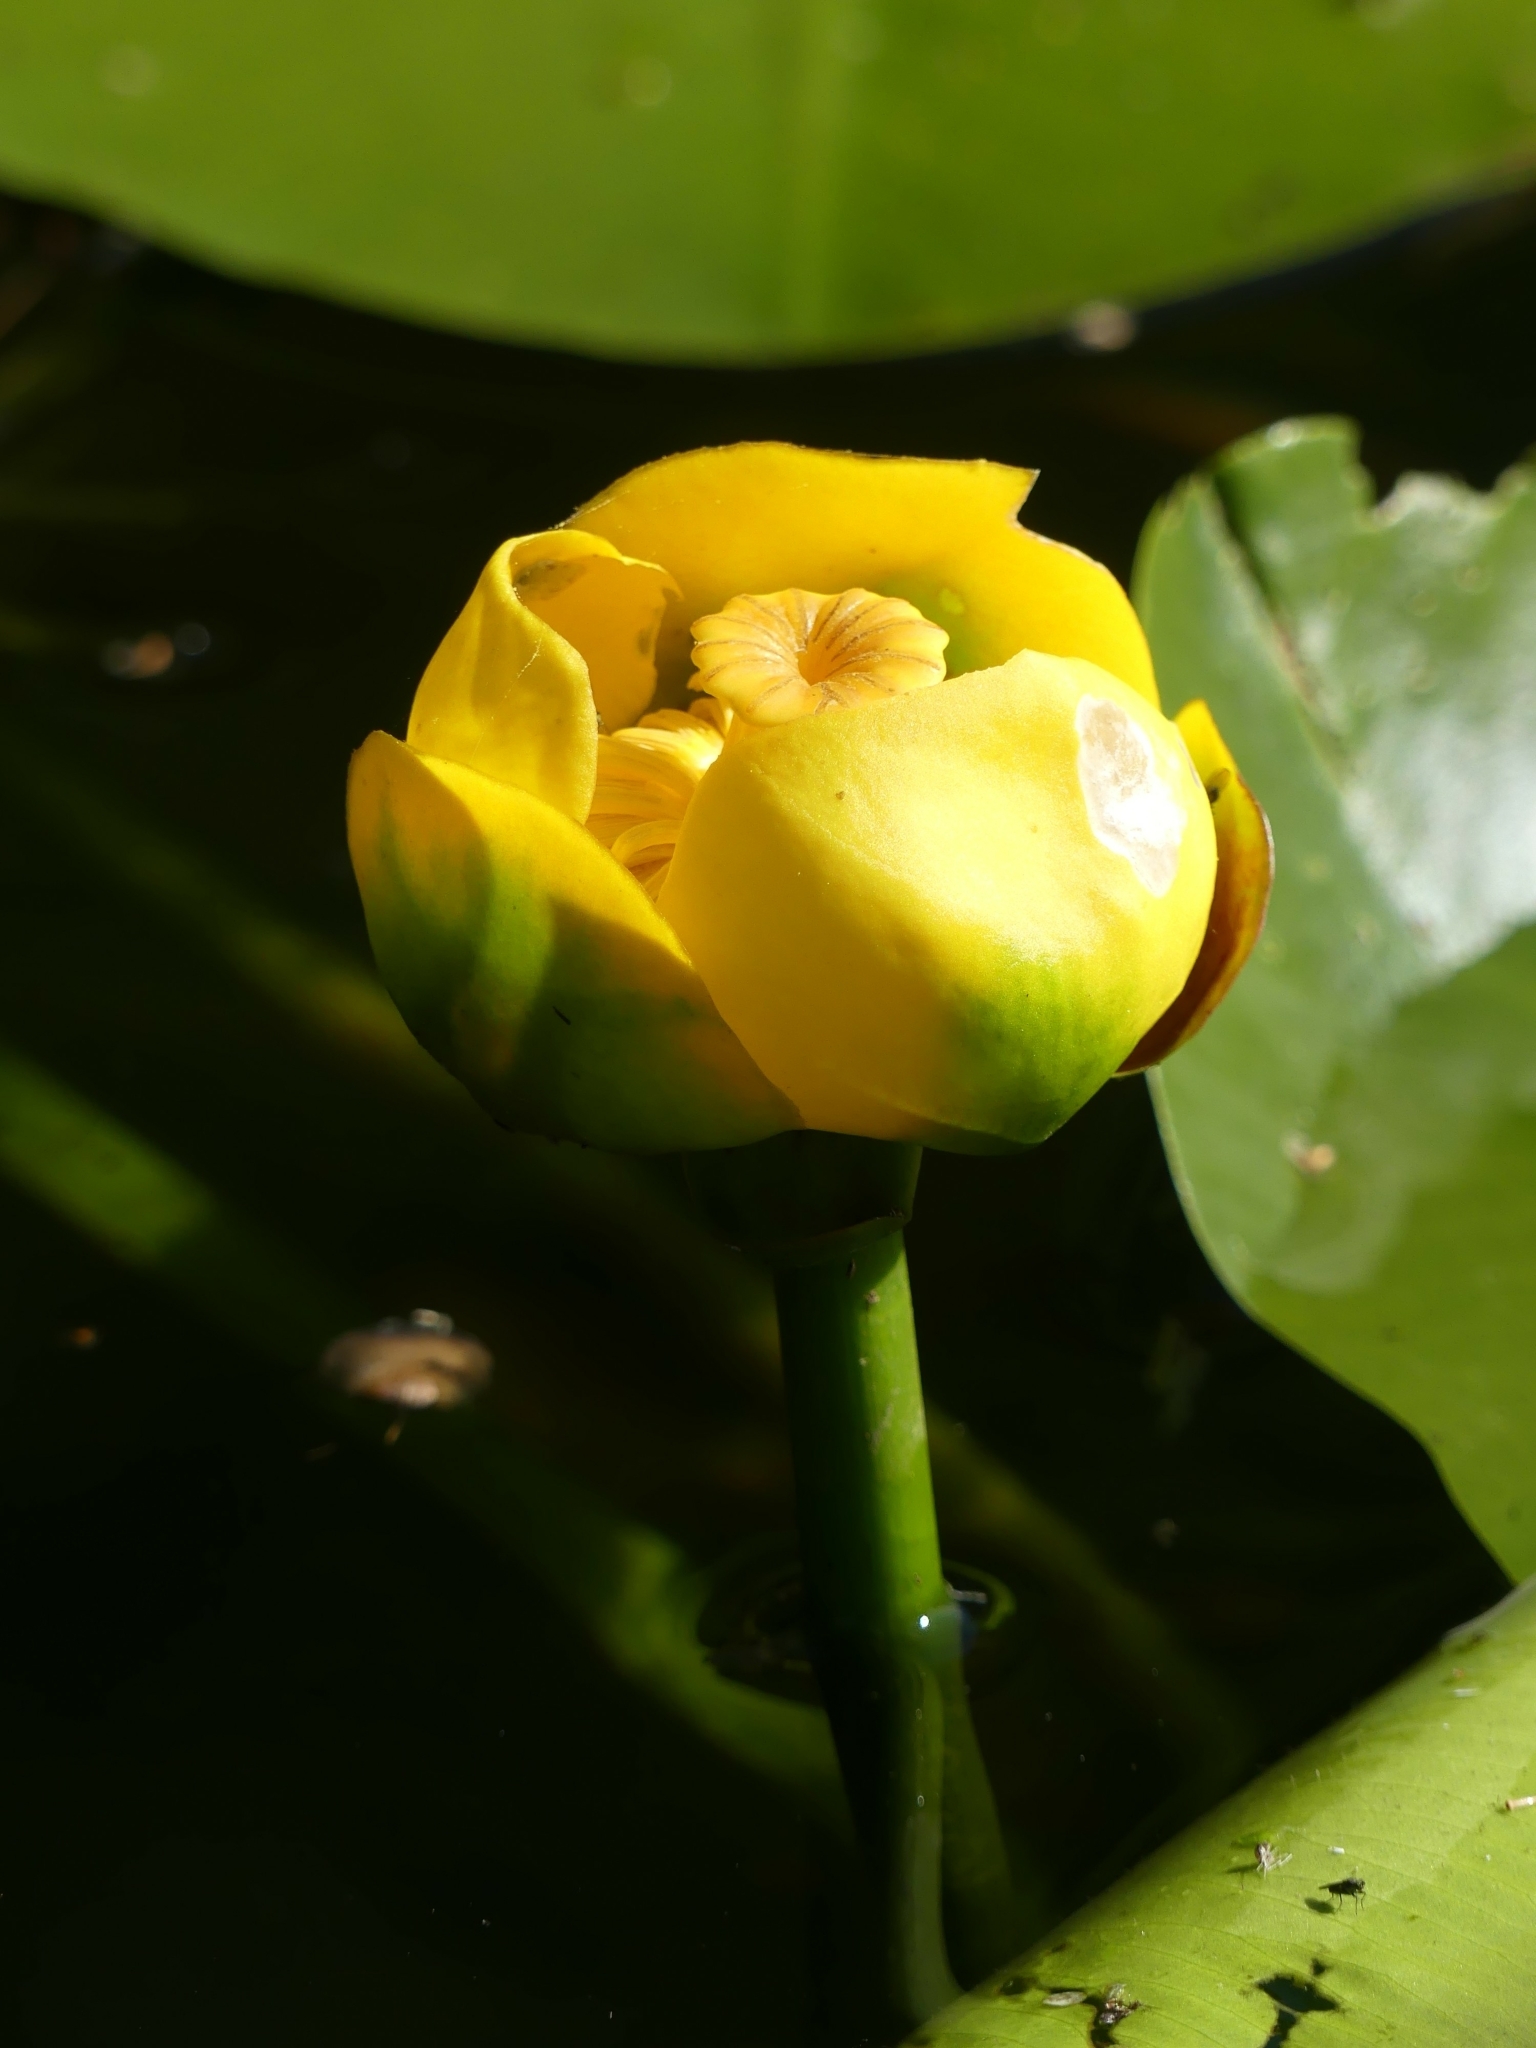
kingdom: Plantae
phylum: Tracheophyta
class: Magnoliopsida
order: Nymphaeales
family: Nymphaeaceae
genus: Nuphar
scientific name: Nuphar variegata
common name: Beaver-root
